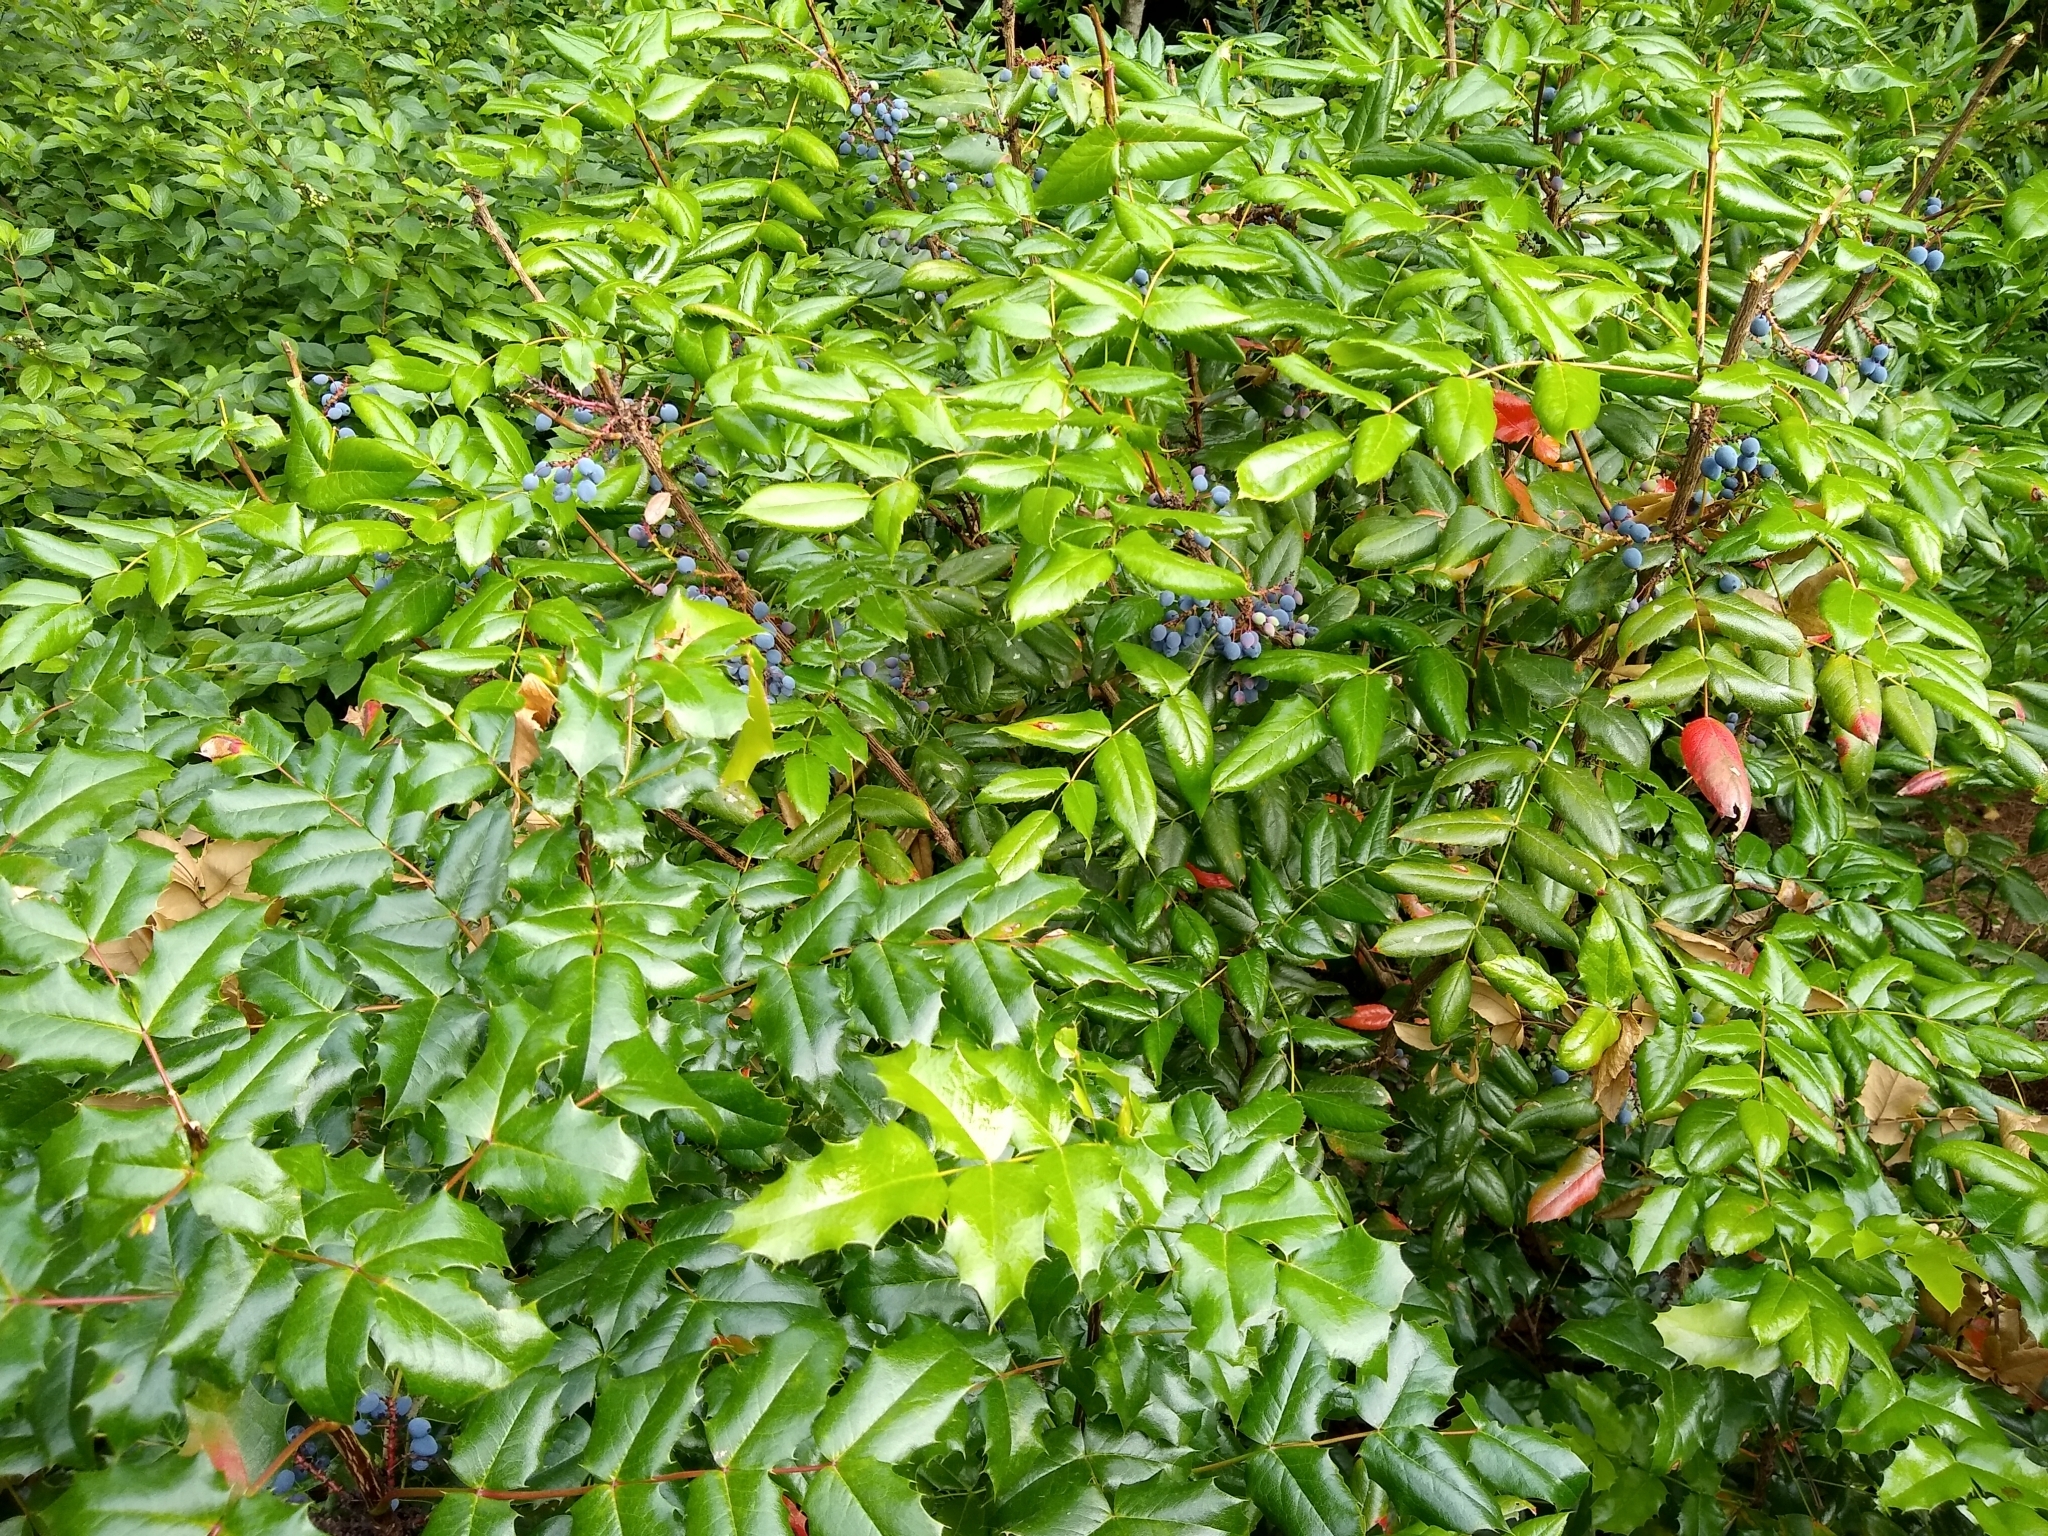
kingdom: Plantae
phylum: Tracheophyta
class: Magnoliopsida
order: Ranunculales
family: Berberidaceae
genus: Mahonia
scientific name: Mahonia aquifolium
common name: Oregon-grape
